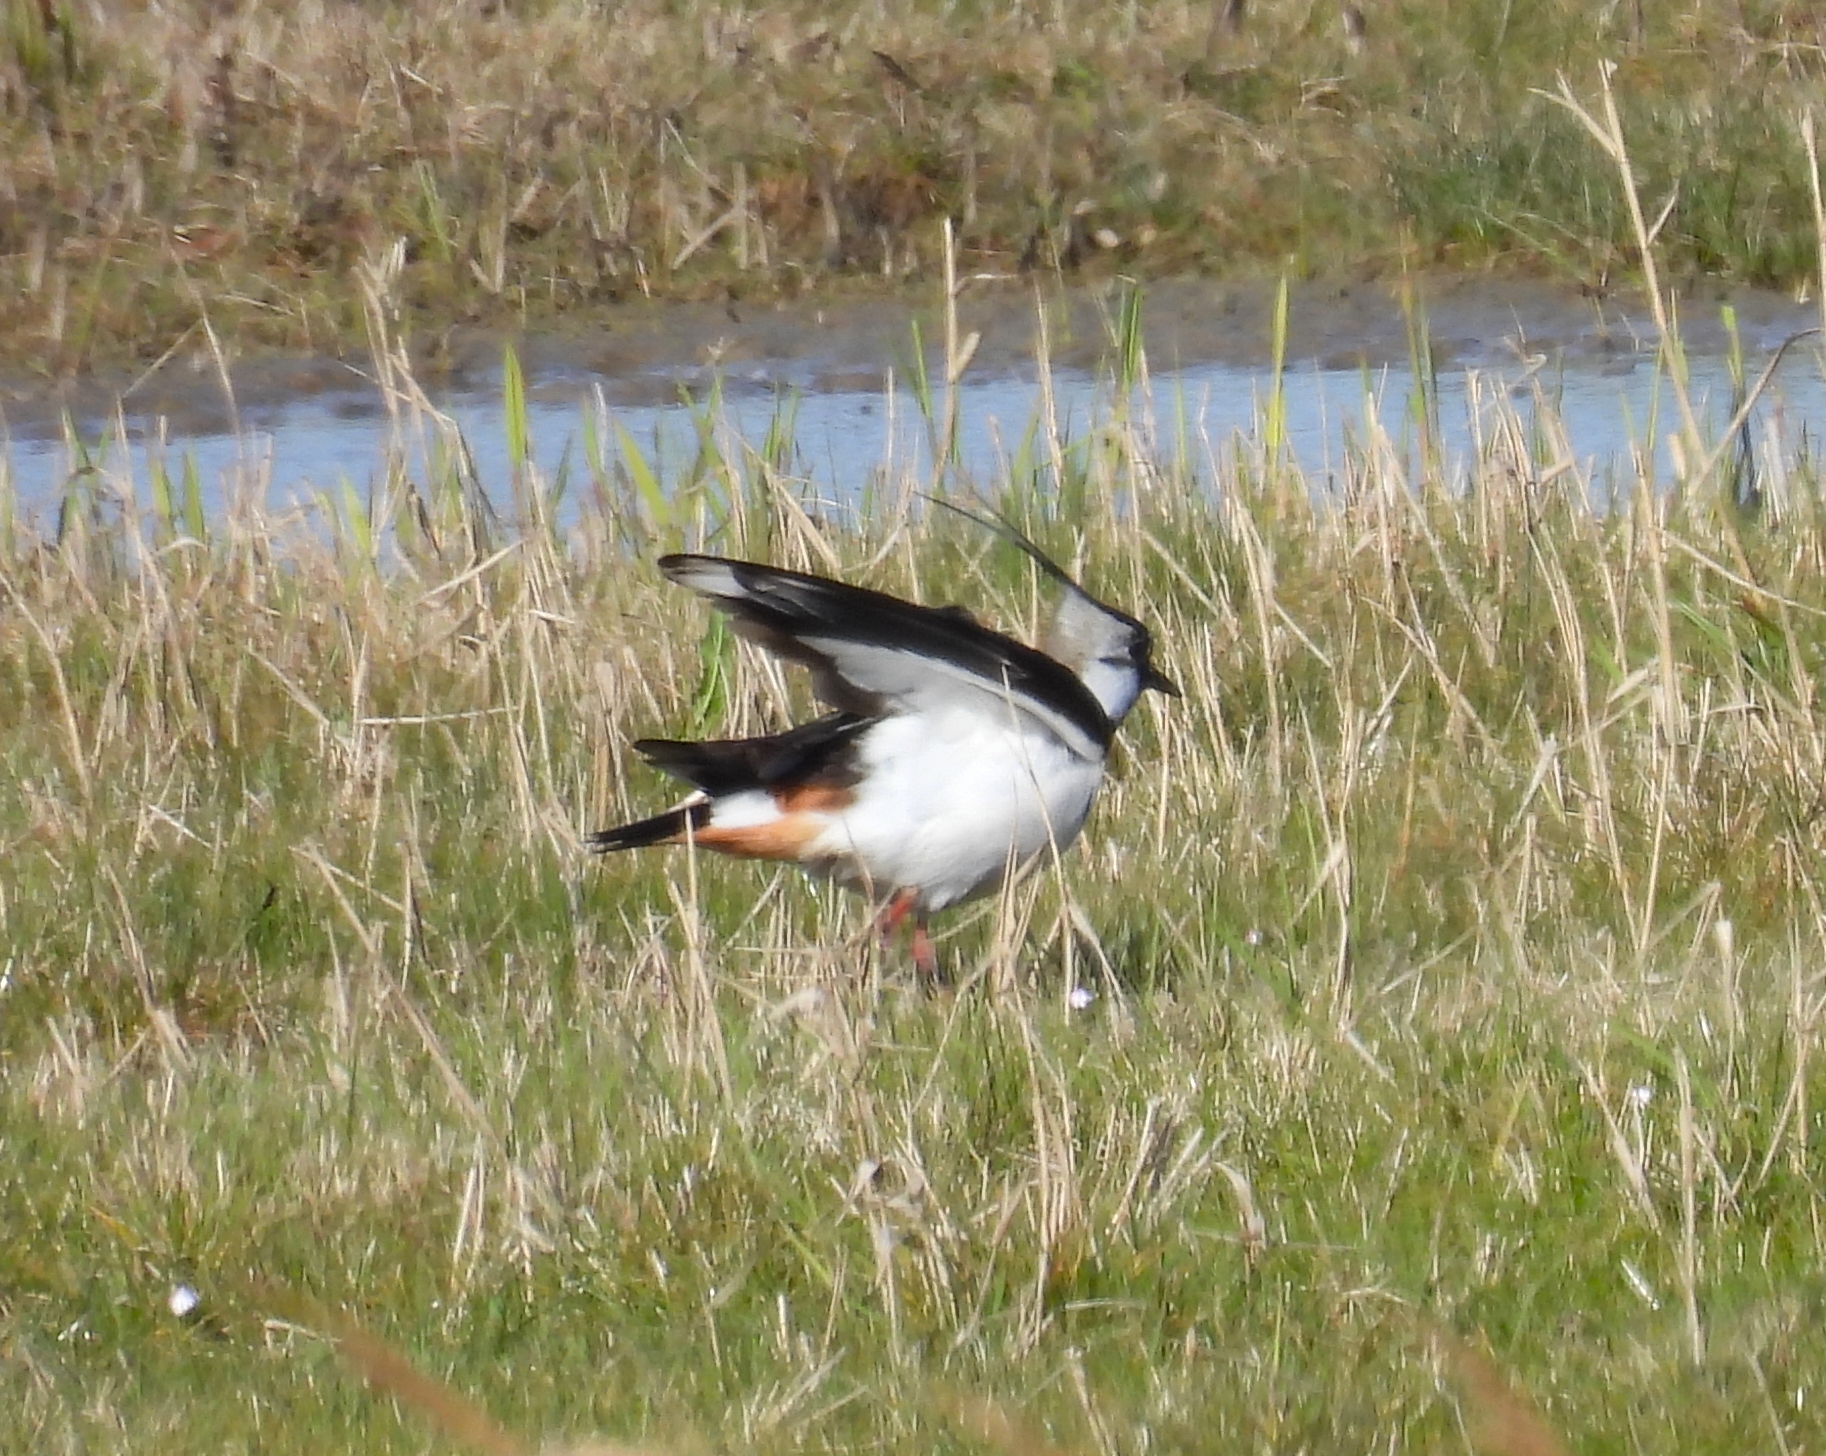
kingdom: Animalia
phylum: Chordata
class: Aves
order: Charadriiformes
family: Charadriidae
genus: Vanellus
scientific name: Vanellus vanellus
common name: Northern lapwing
